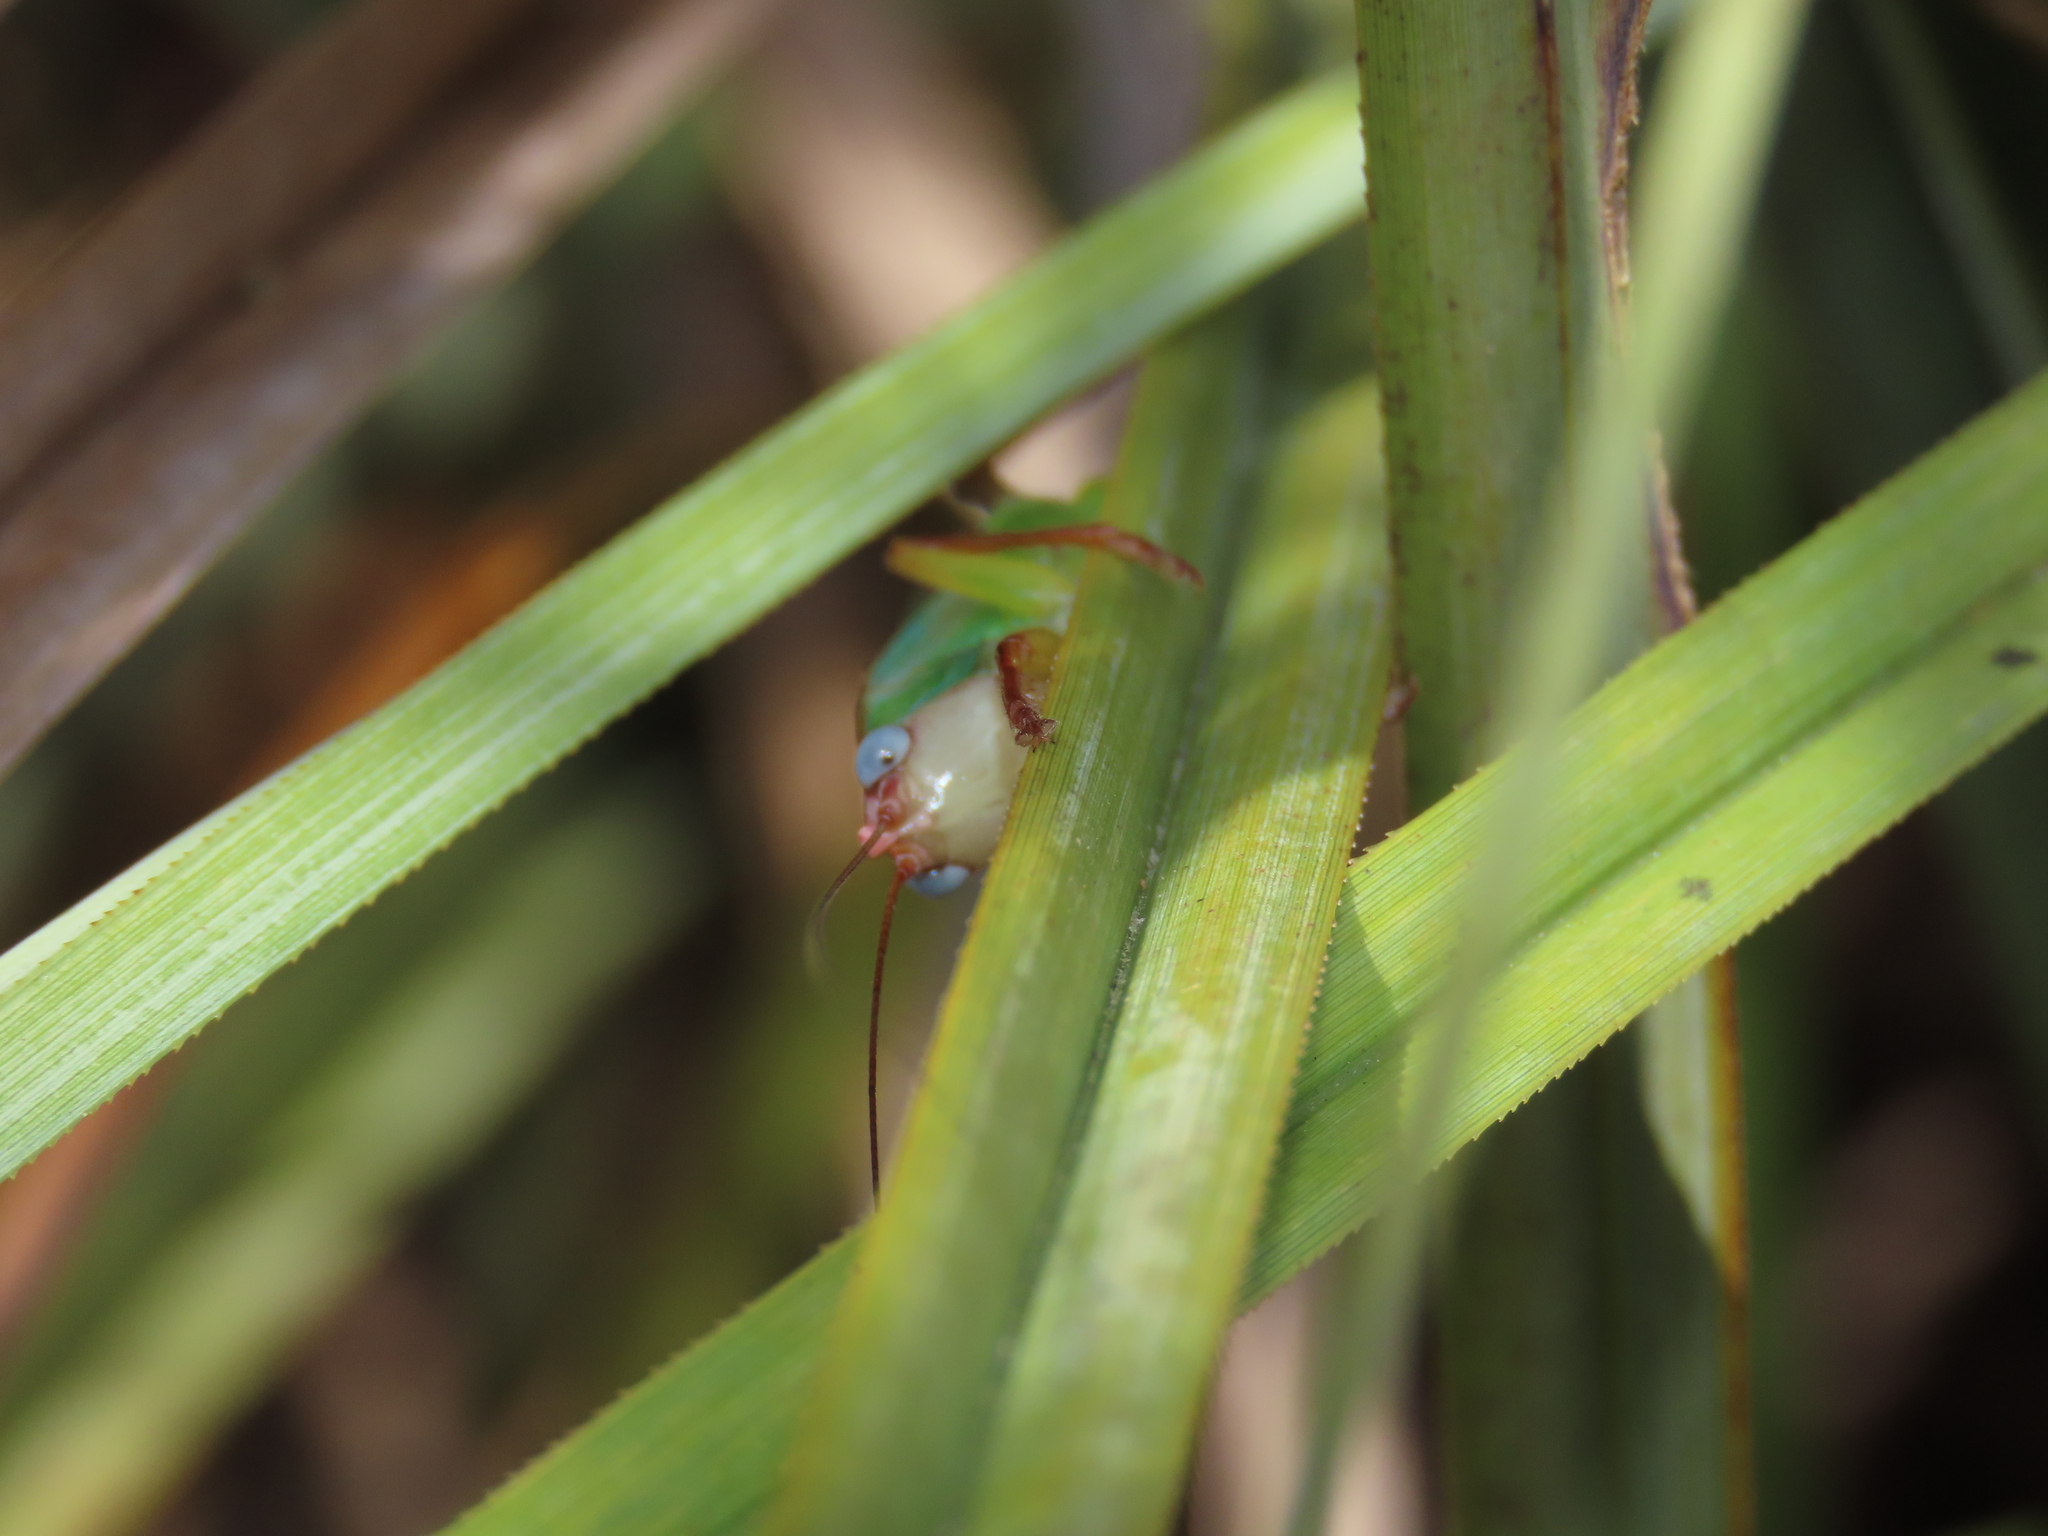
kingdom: Animalia
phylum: Arthropoda
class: Insecta
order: Orthoptera
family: Tettigoniidae
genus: Orchelimum
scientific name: Orchelimum pulchellum
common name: Handsome meadow katydid
